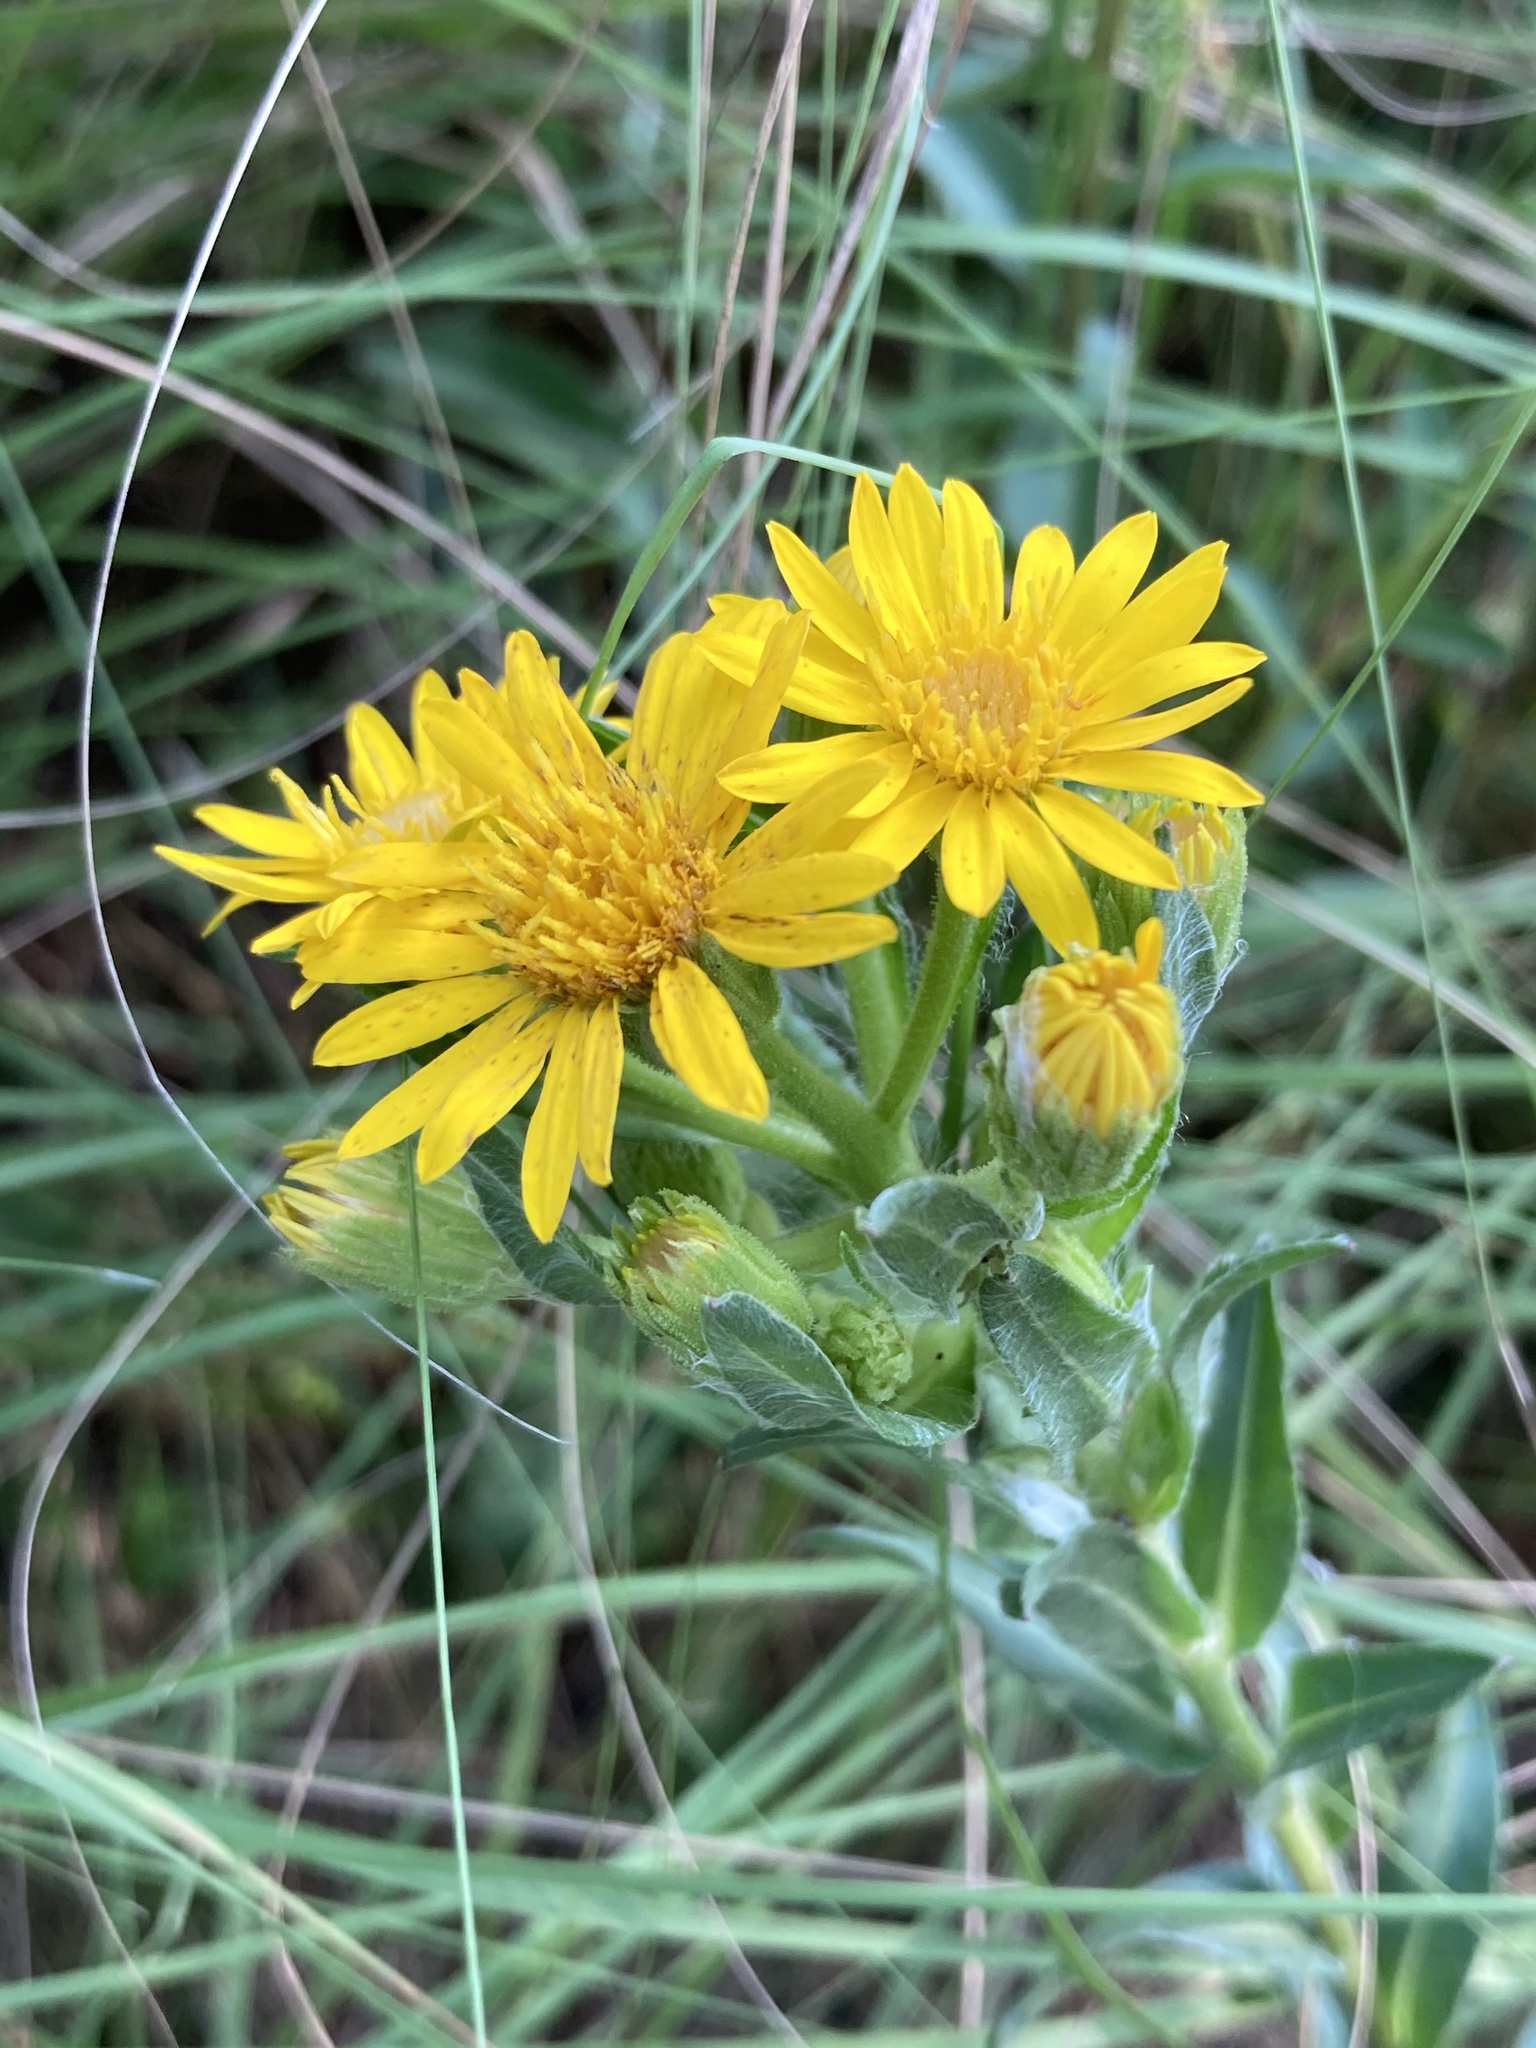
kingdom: Plantae
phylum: Tracheophyta
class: Magnoliopsida
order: Asterales
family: Asteraceae
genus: Chrysopsis
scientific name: Chrysopsis mariana
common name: Maryland golden-aster
